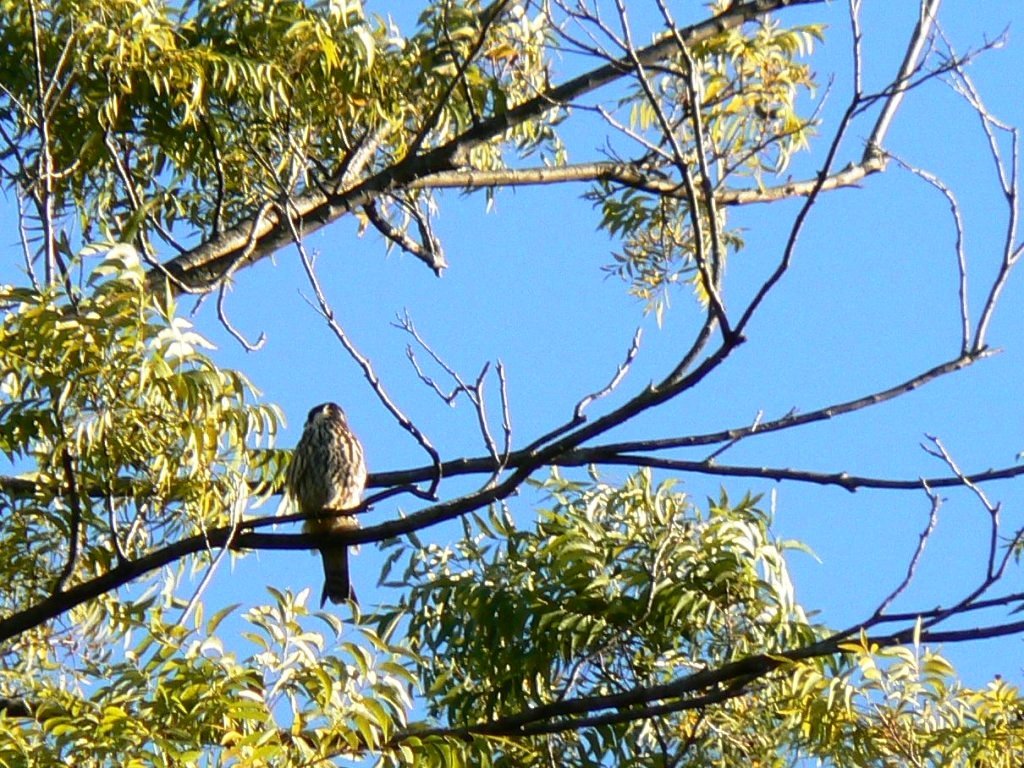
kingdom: Animalia
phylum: Chordata
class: Aves
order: Falconiformes
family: Falconidae
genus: Falco
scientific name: Falco subbuteo
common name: Eurasian hobby
